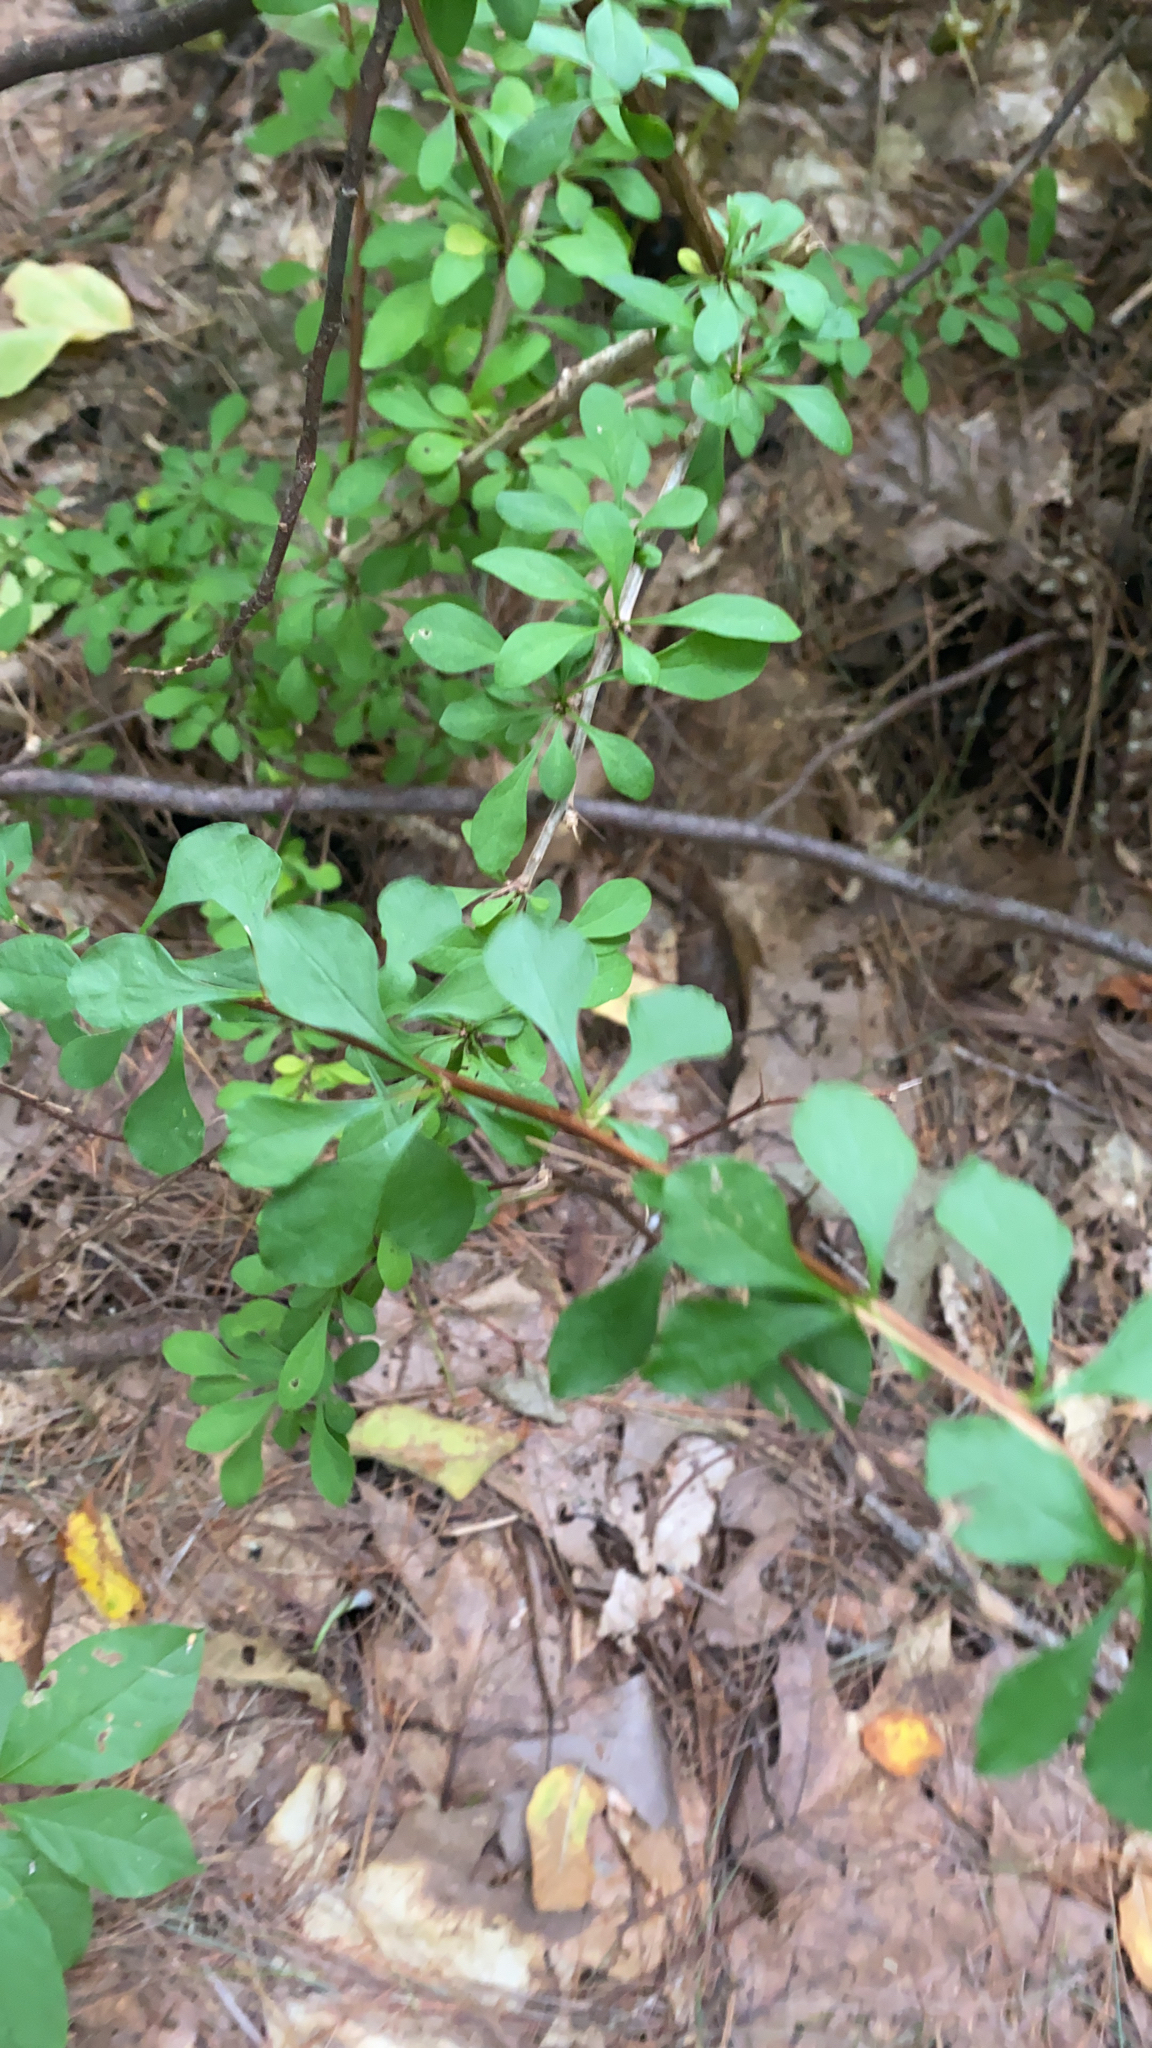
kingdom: Plantae
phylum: Tracheophyta
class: Magnoliopsida
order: Ranunculales
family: Berberidaceae
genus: Berberis
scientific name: Berberis thunbergii
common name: Japanese barberry
